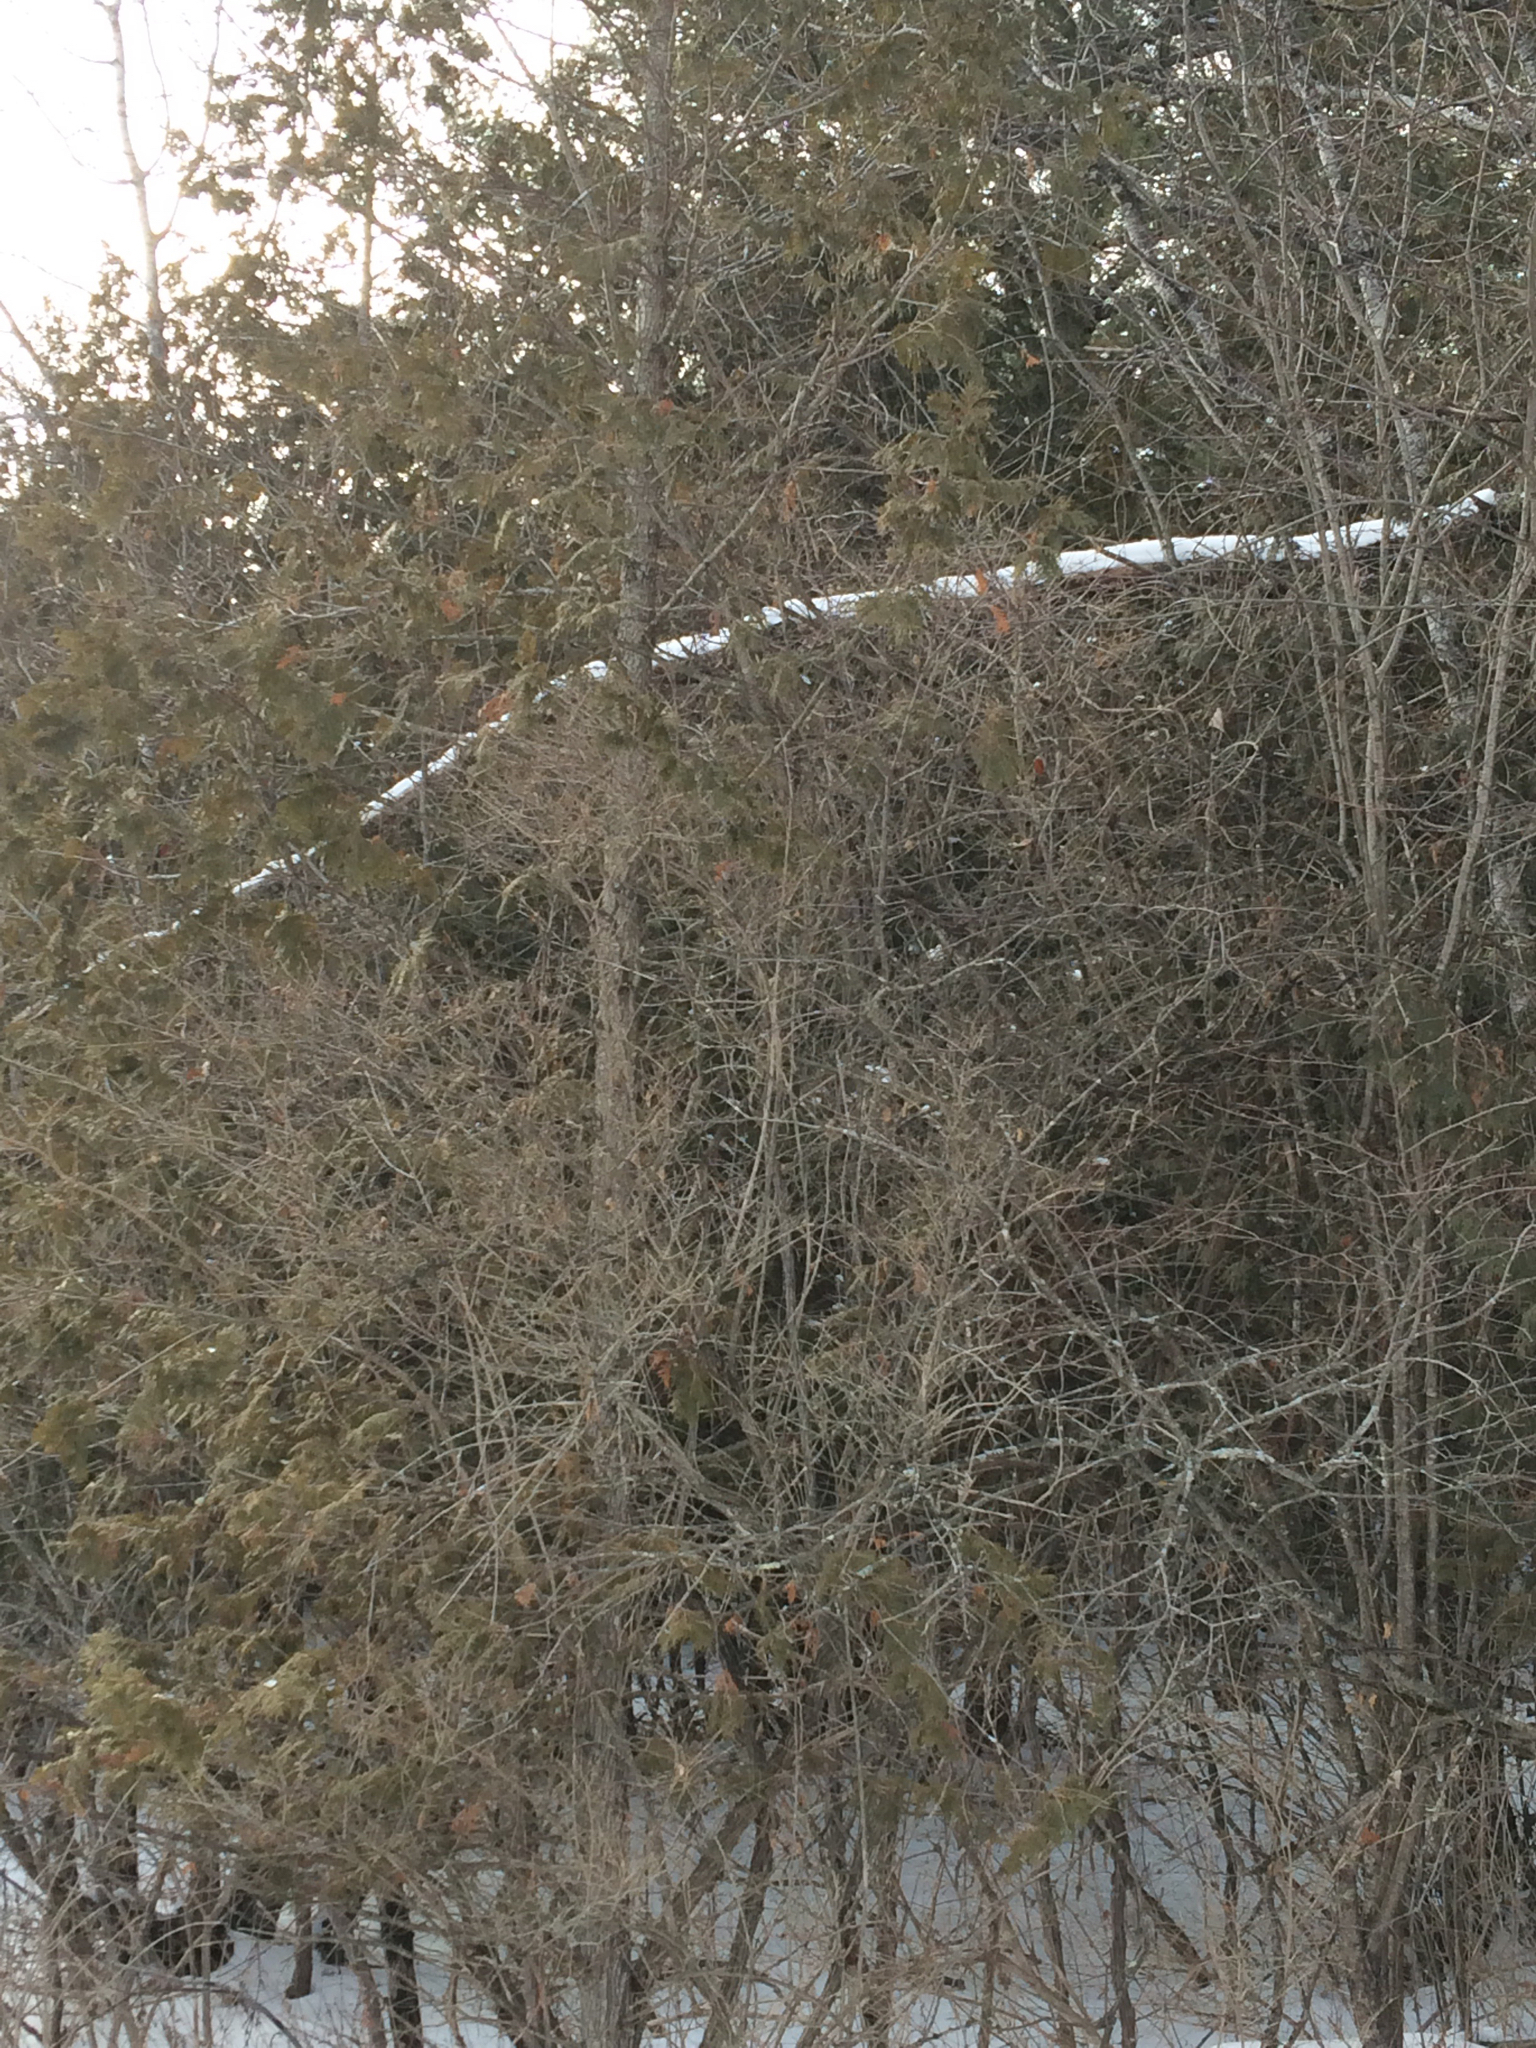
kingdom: Plantae
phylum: Tracheophyta
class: Pinopsida
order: Pinales
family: Cupressaceae
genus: Thuja
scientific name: Thuja occidentalis
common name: Northern white-cedar
